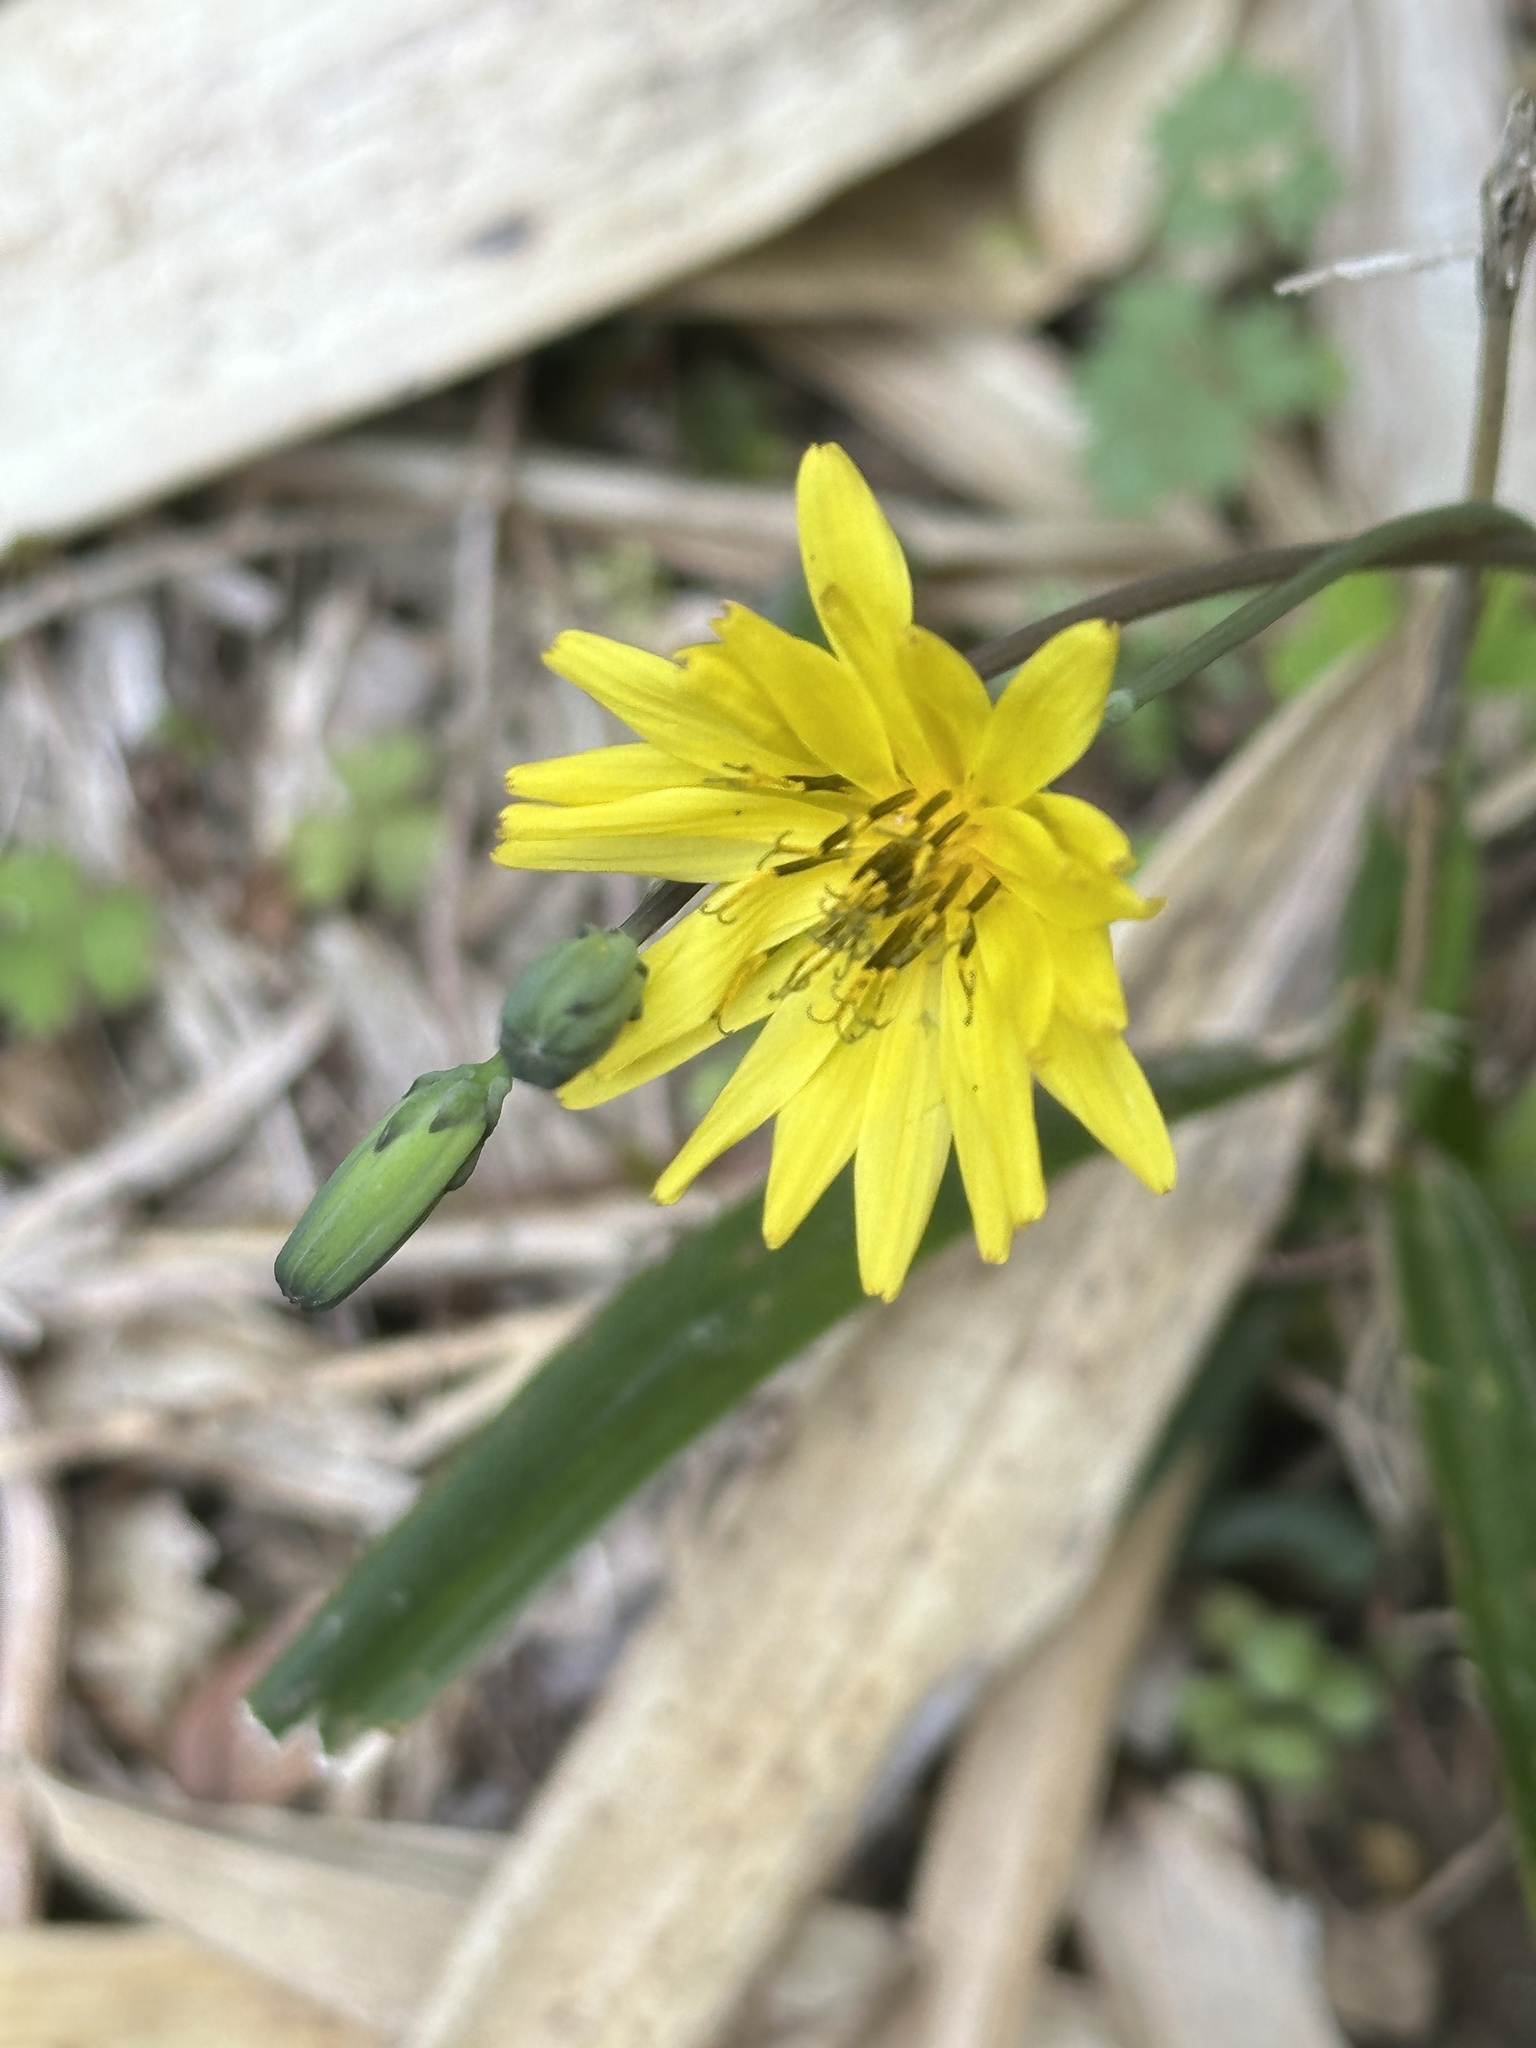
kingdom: Plantae
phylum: Tracheophyta
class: Magnoliopsida
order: Asterales
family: Asteraceae
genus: Ixeris
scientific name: Ixeris japonica
